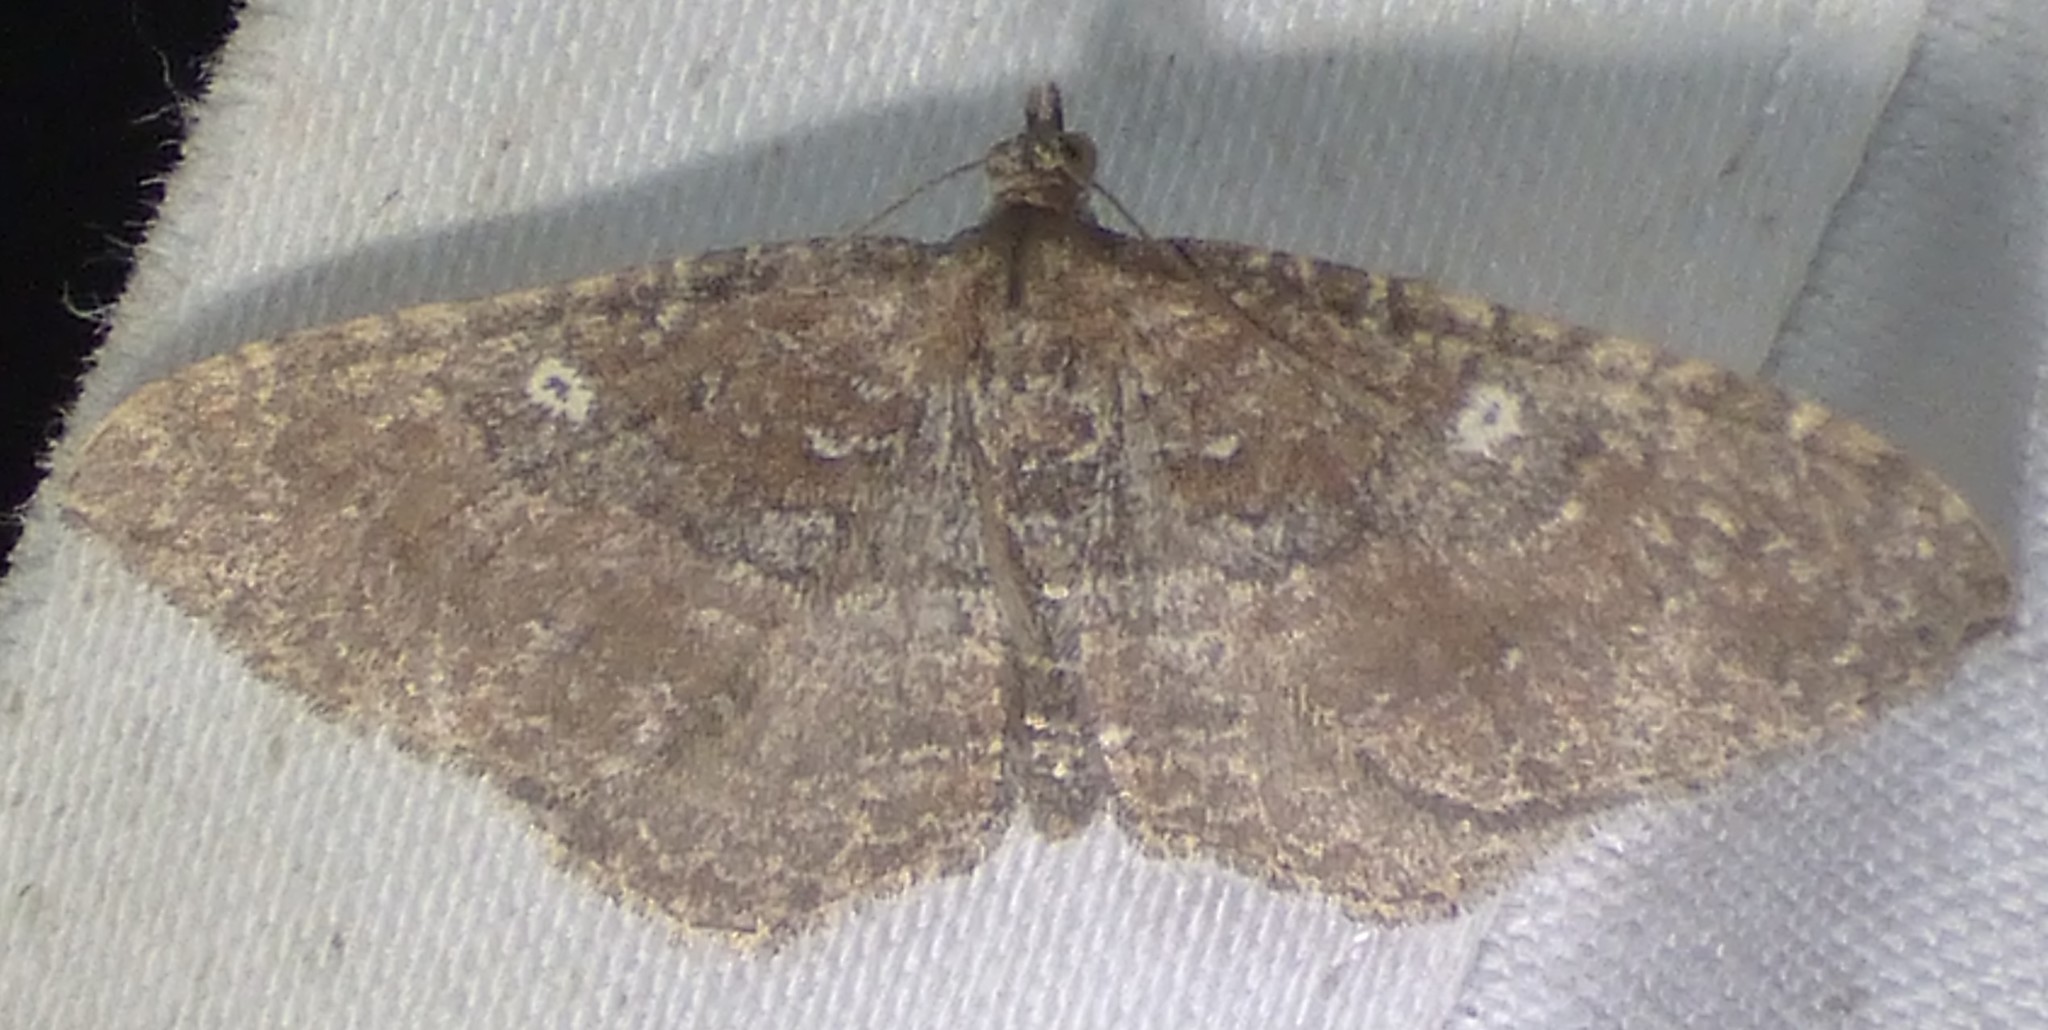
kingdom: Animalia
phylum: Arthropoda
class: Insecta
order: Lepidoptera
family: Geometridae
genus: Orthonama
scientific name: Orthonama obstipata
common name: The gem
